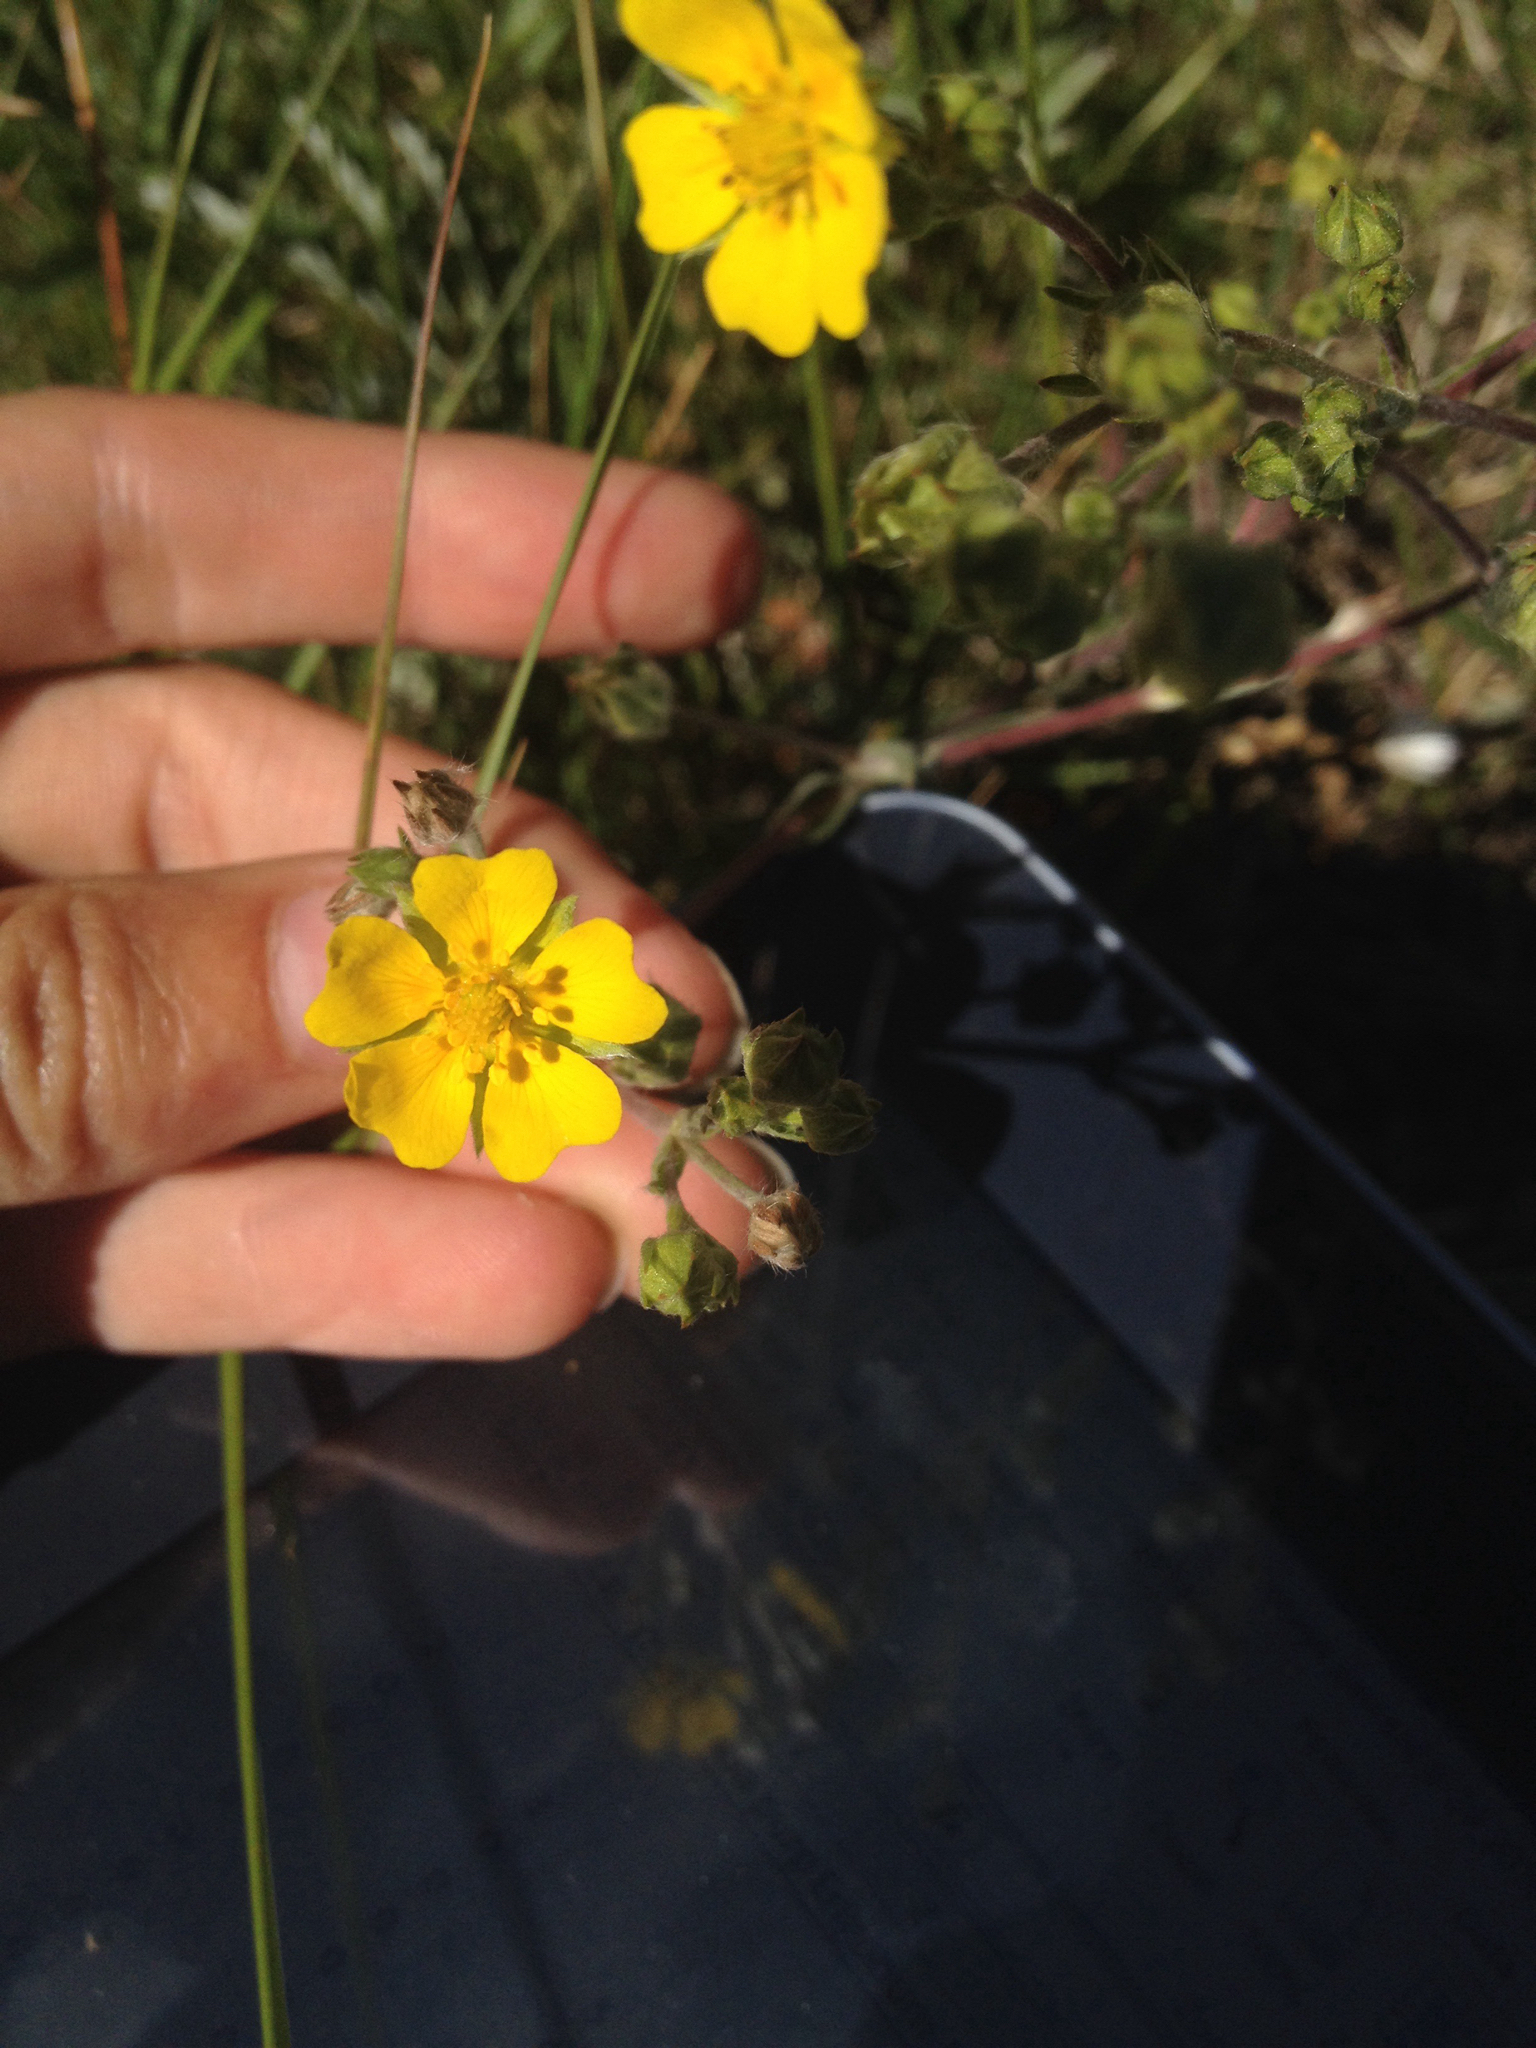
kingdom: Plantae
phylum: Tracheophyta
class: Magnoliopsida
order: Rosales
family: Rosaceae
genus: Potentilla
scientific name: Potentilla hippiana
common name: Woolly cinquefoil
